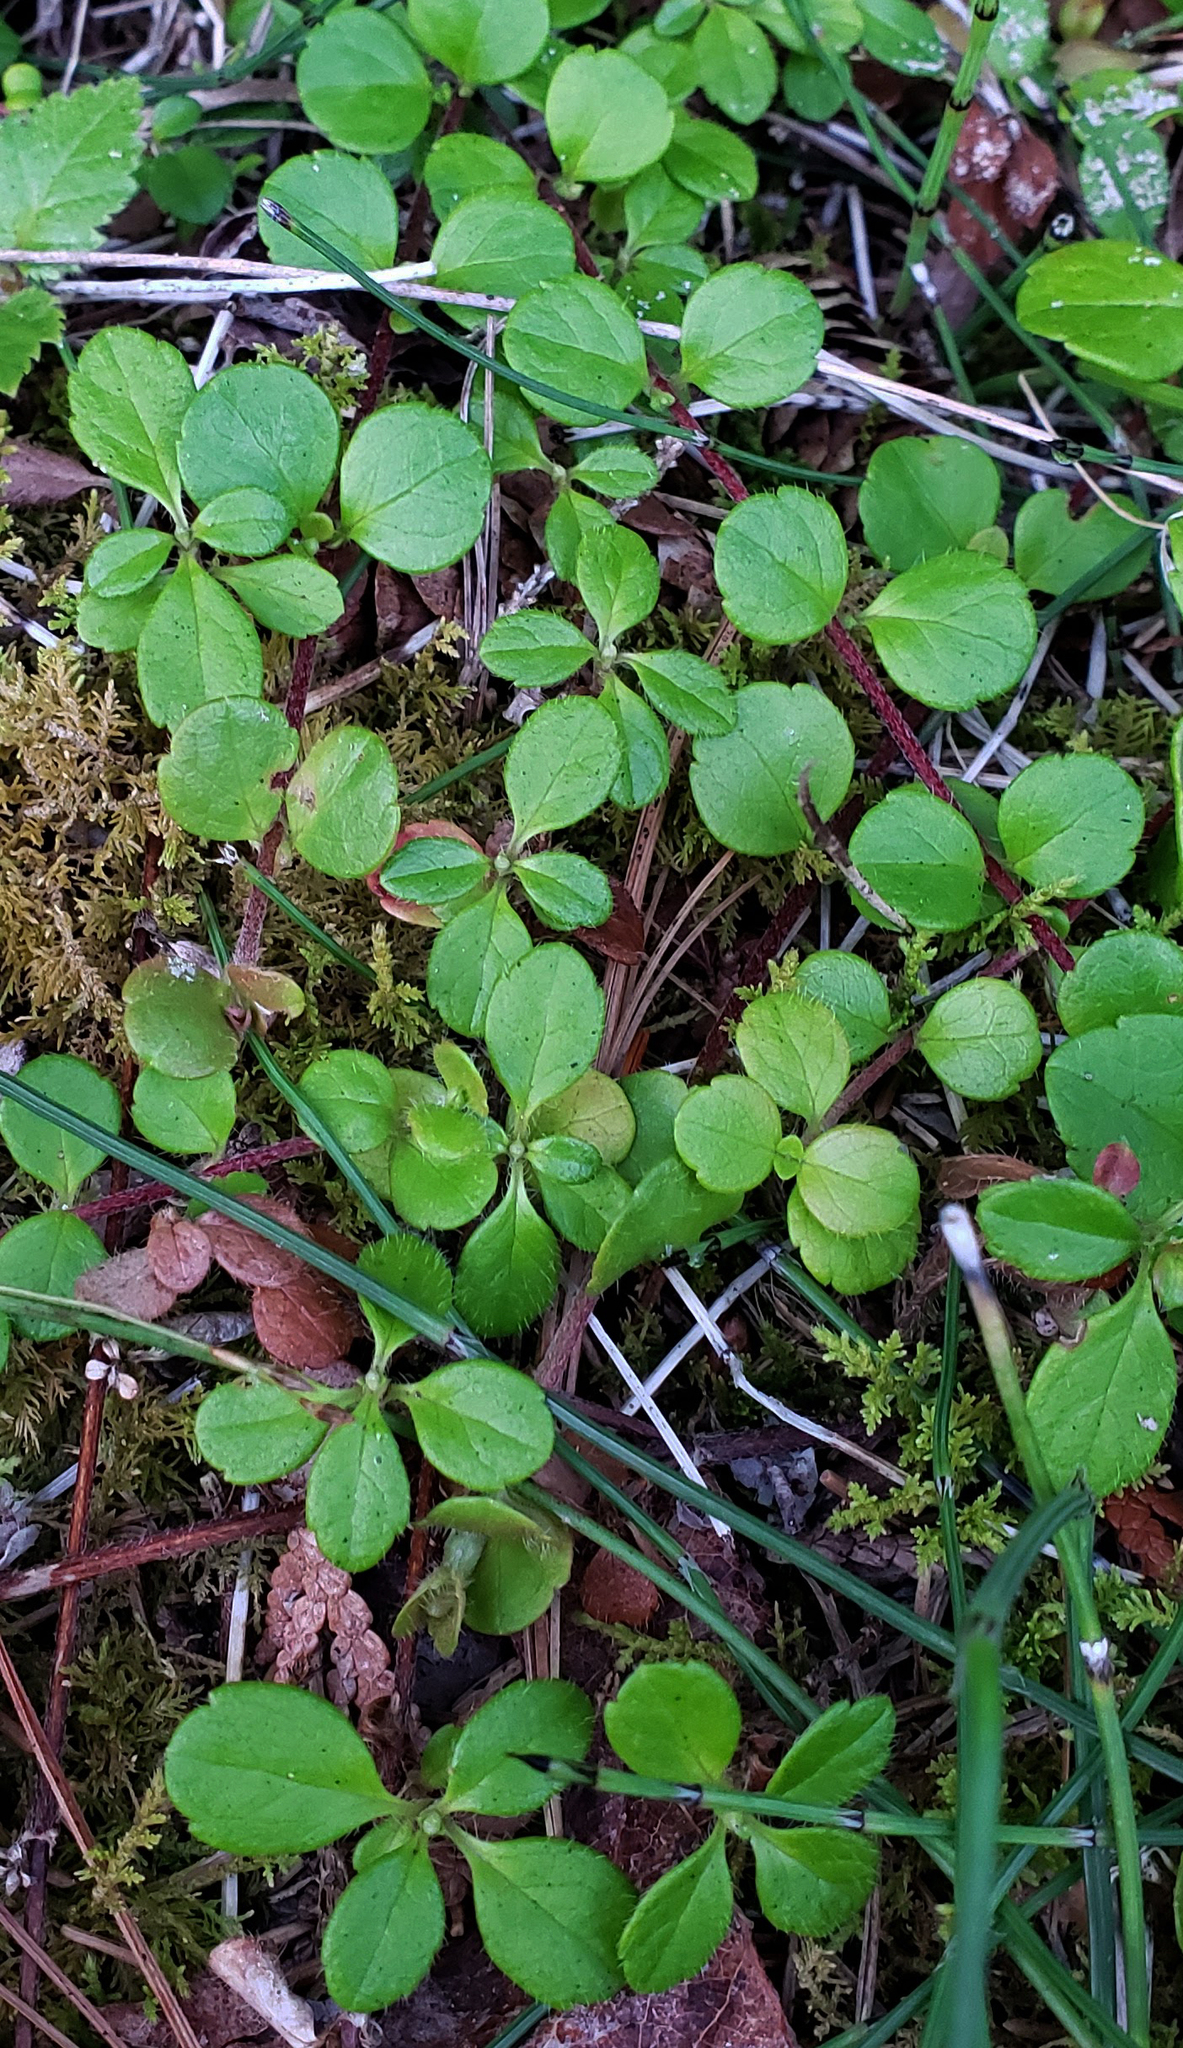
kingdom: Plantae
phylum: Tracheophyta
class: Magnoliopsida
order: Dipsacales
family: Caprifoliaceae
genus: Linnaea
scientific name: Linnaea borealis
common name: Twinflower
